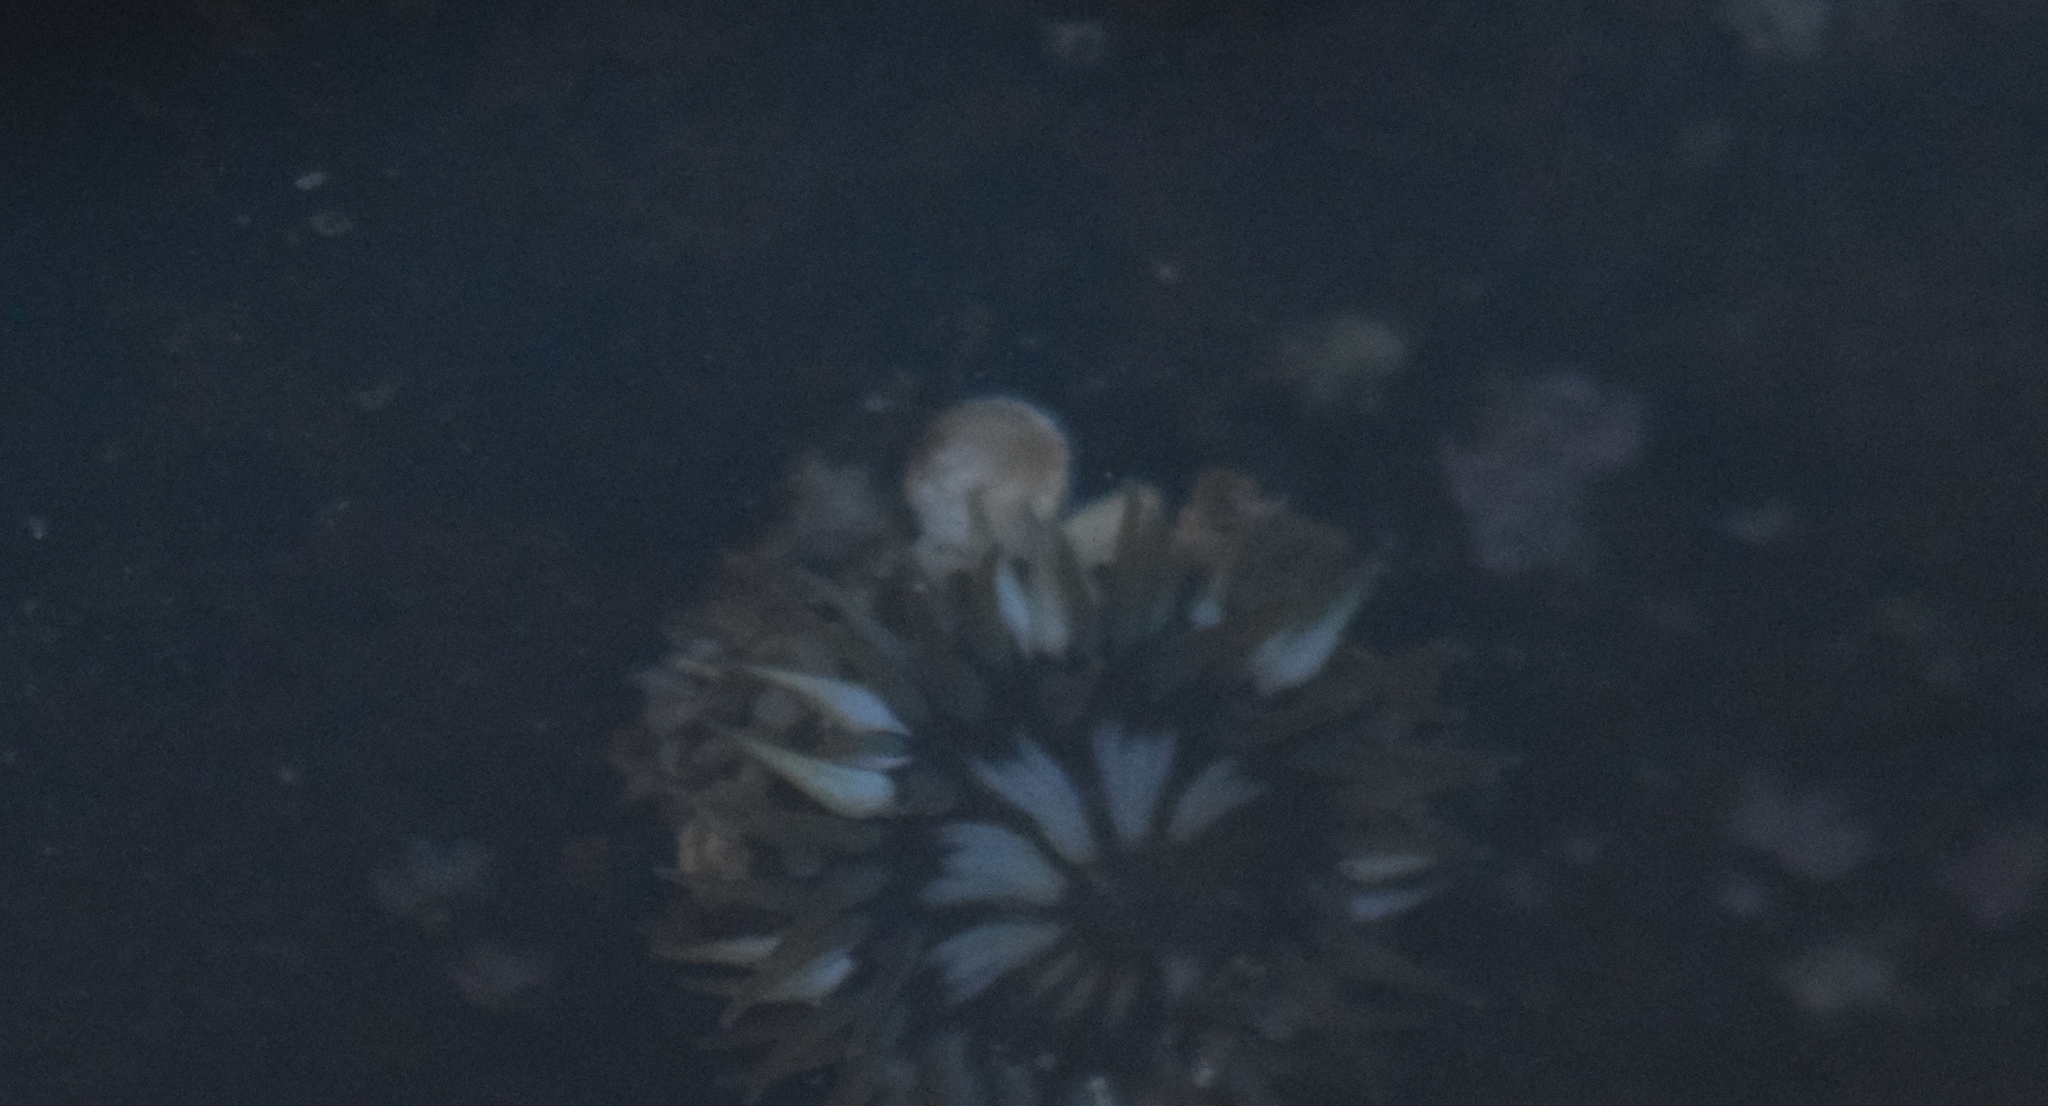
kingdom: Animalia
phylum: Cnidaria
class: Anthozoa
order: Actiniaria
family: Actiniidae
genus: Anthopleura
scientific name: Anthopleura elegantissima
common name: Clonal anemone
